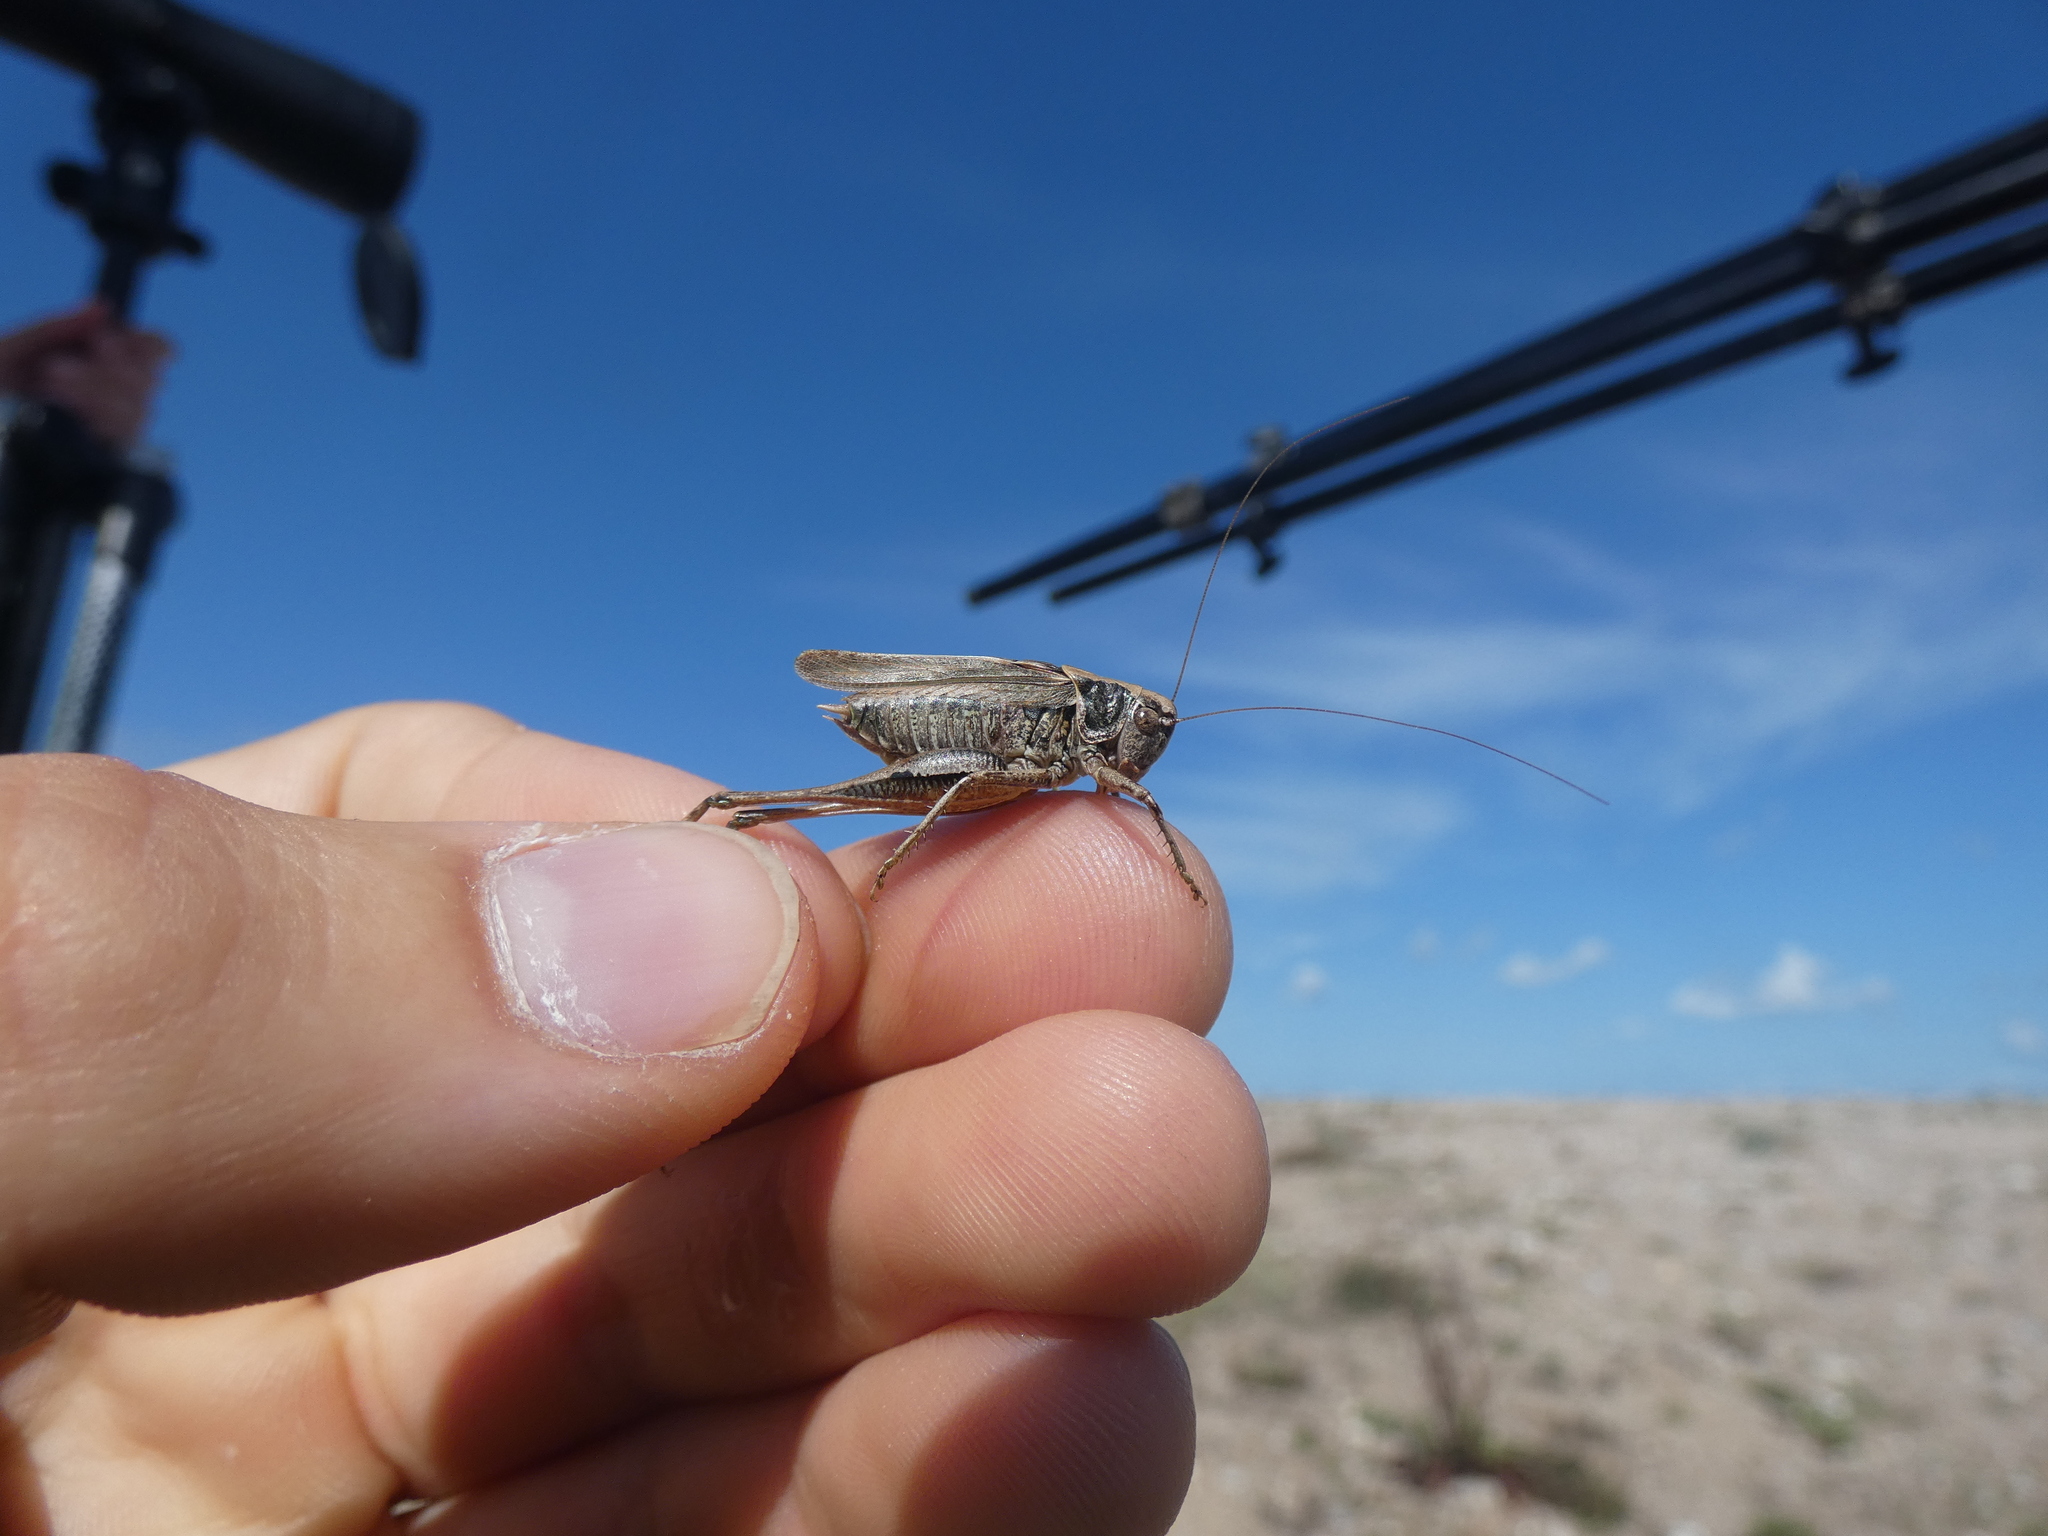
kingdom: Animalia
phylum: Arthropoda
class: Insecta
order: Orthoptera
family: Tettigoniidae
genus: Platycleis
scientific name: Platycleis albopunctata
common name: Grey bush-cricket
